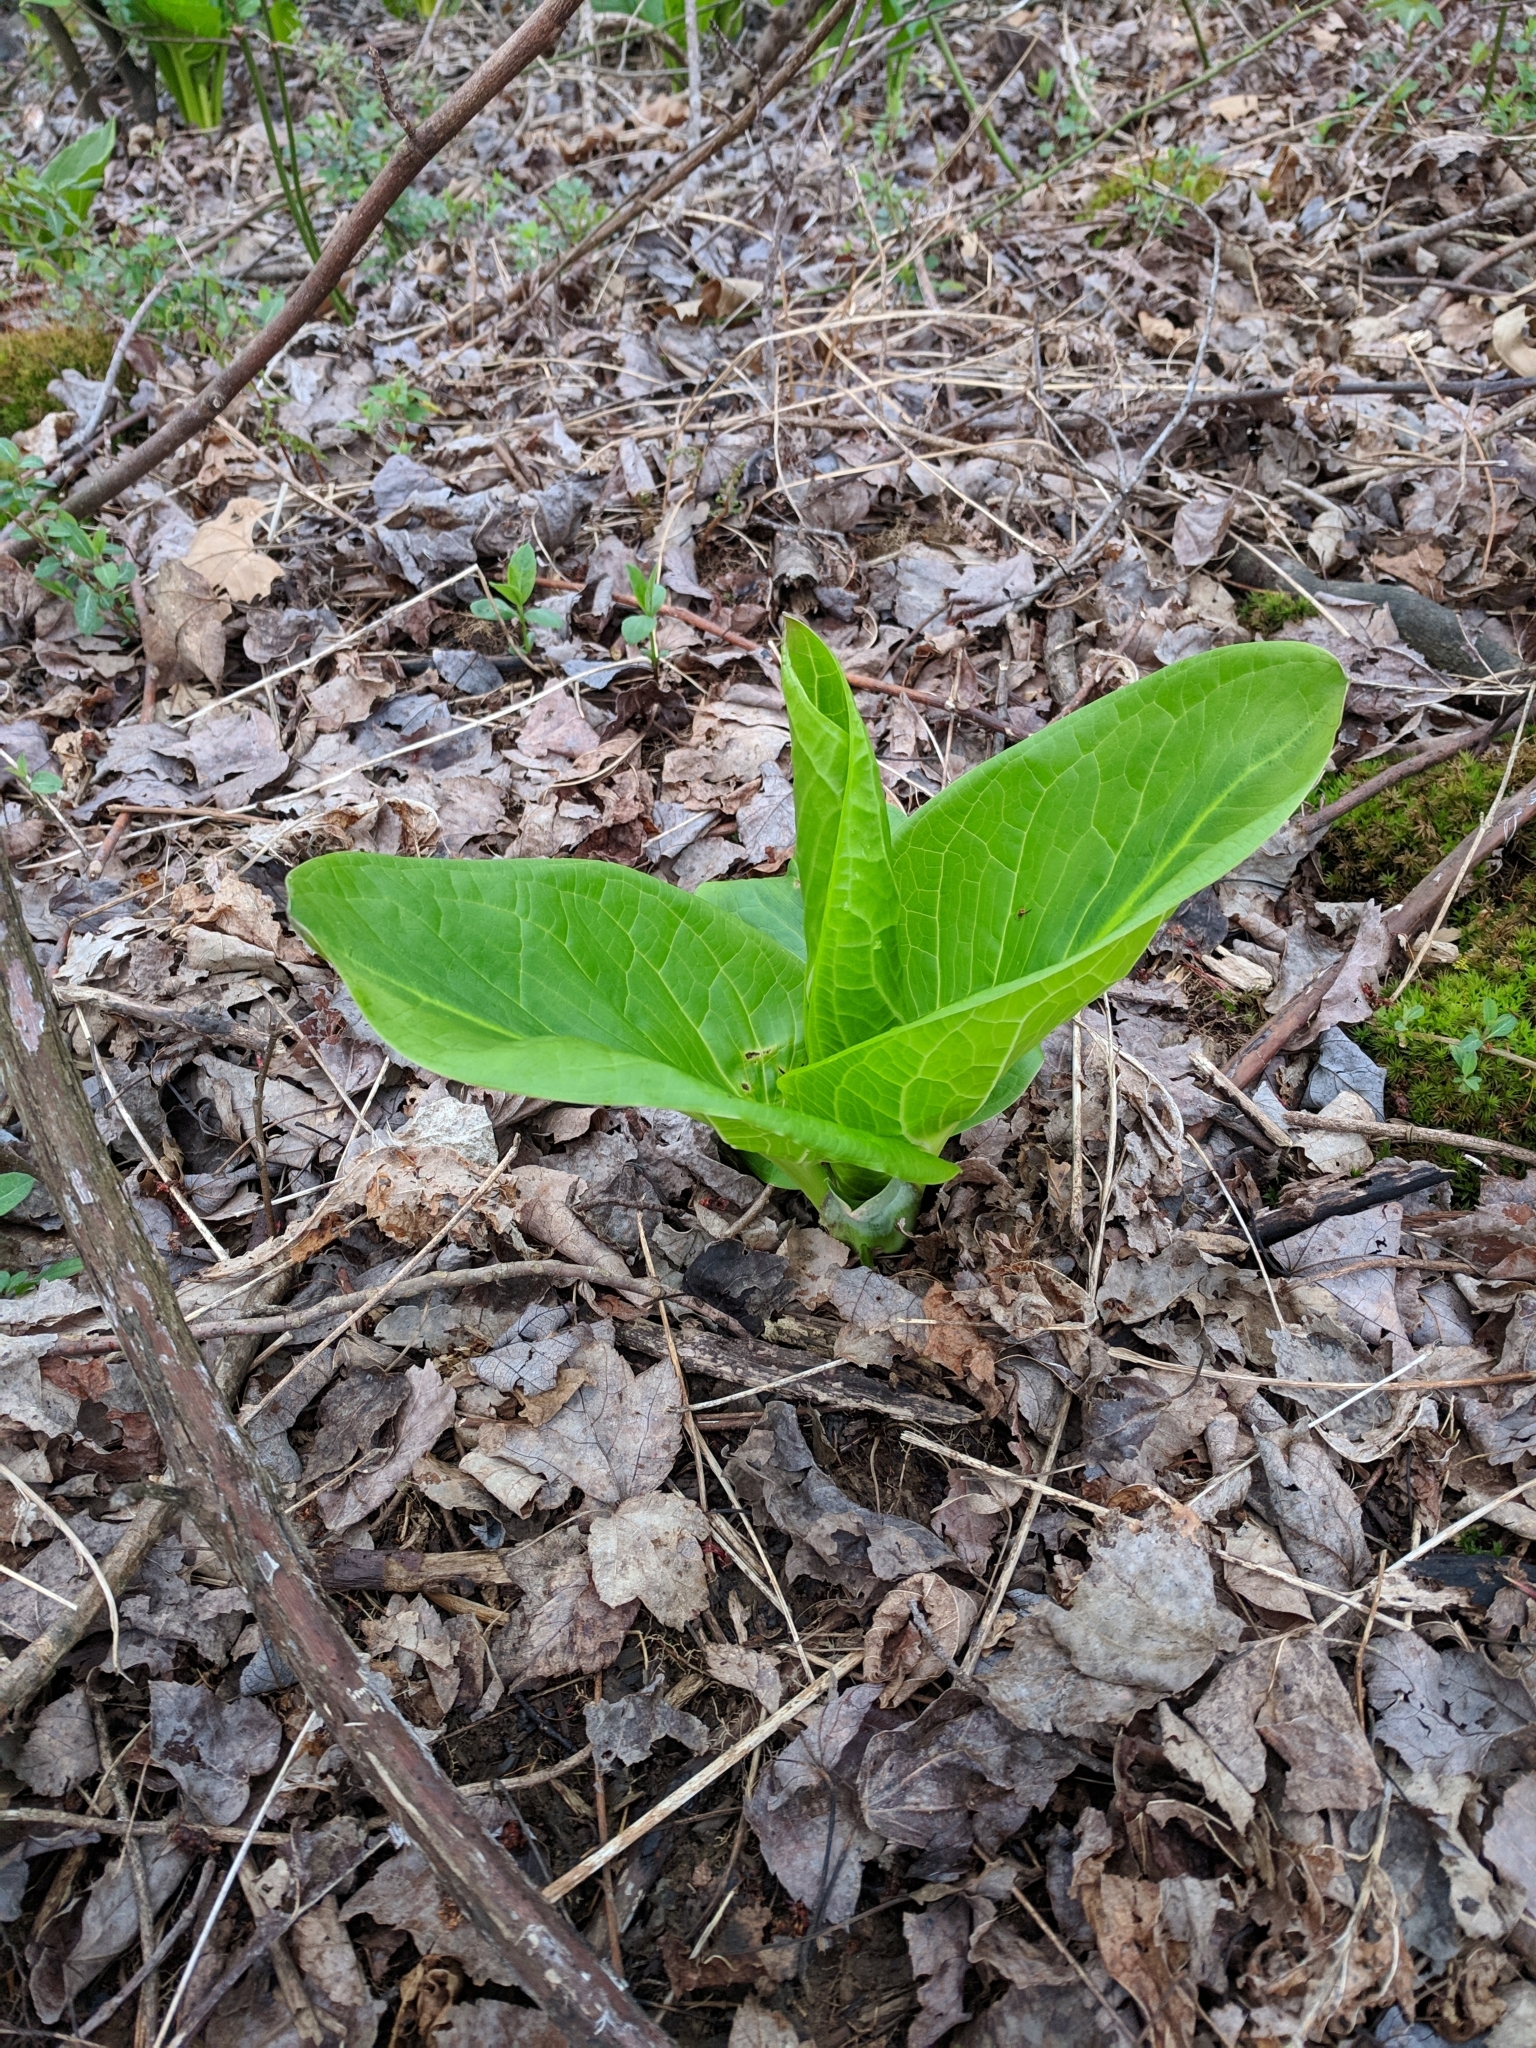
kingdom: Plantae
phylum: Tracheophyta
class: Liliopsida
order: Alismatales
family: Araceae
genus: Symplocarpus
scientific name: Symplocarpus foetidus
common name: Eastern skunk cabbage
